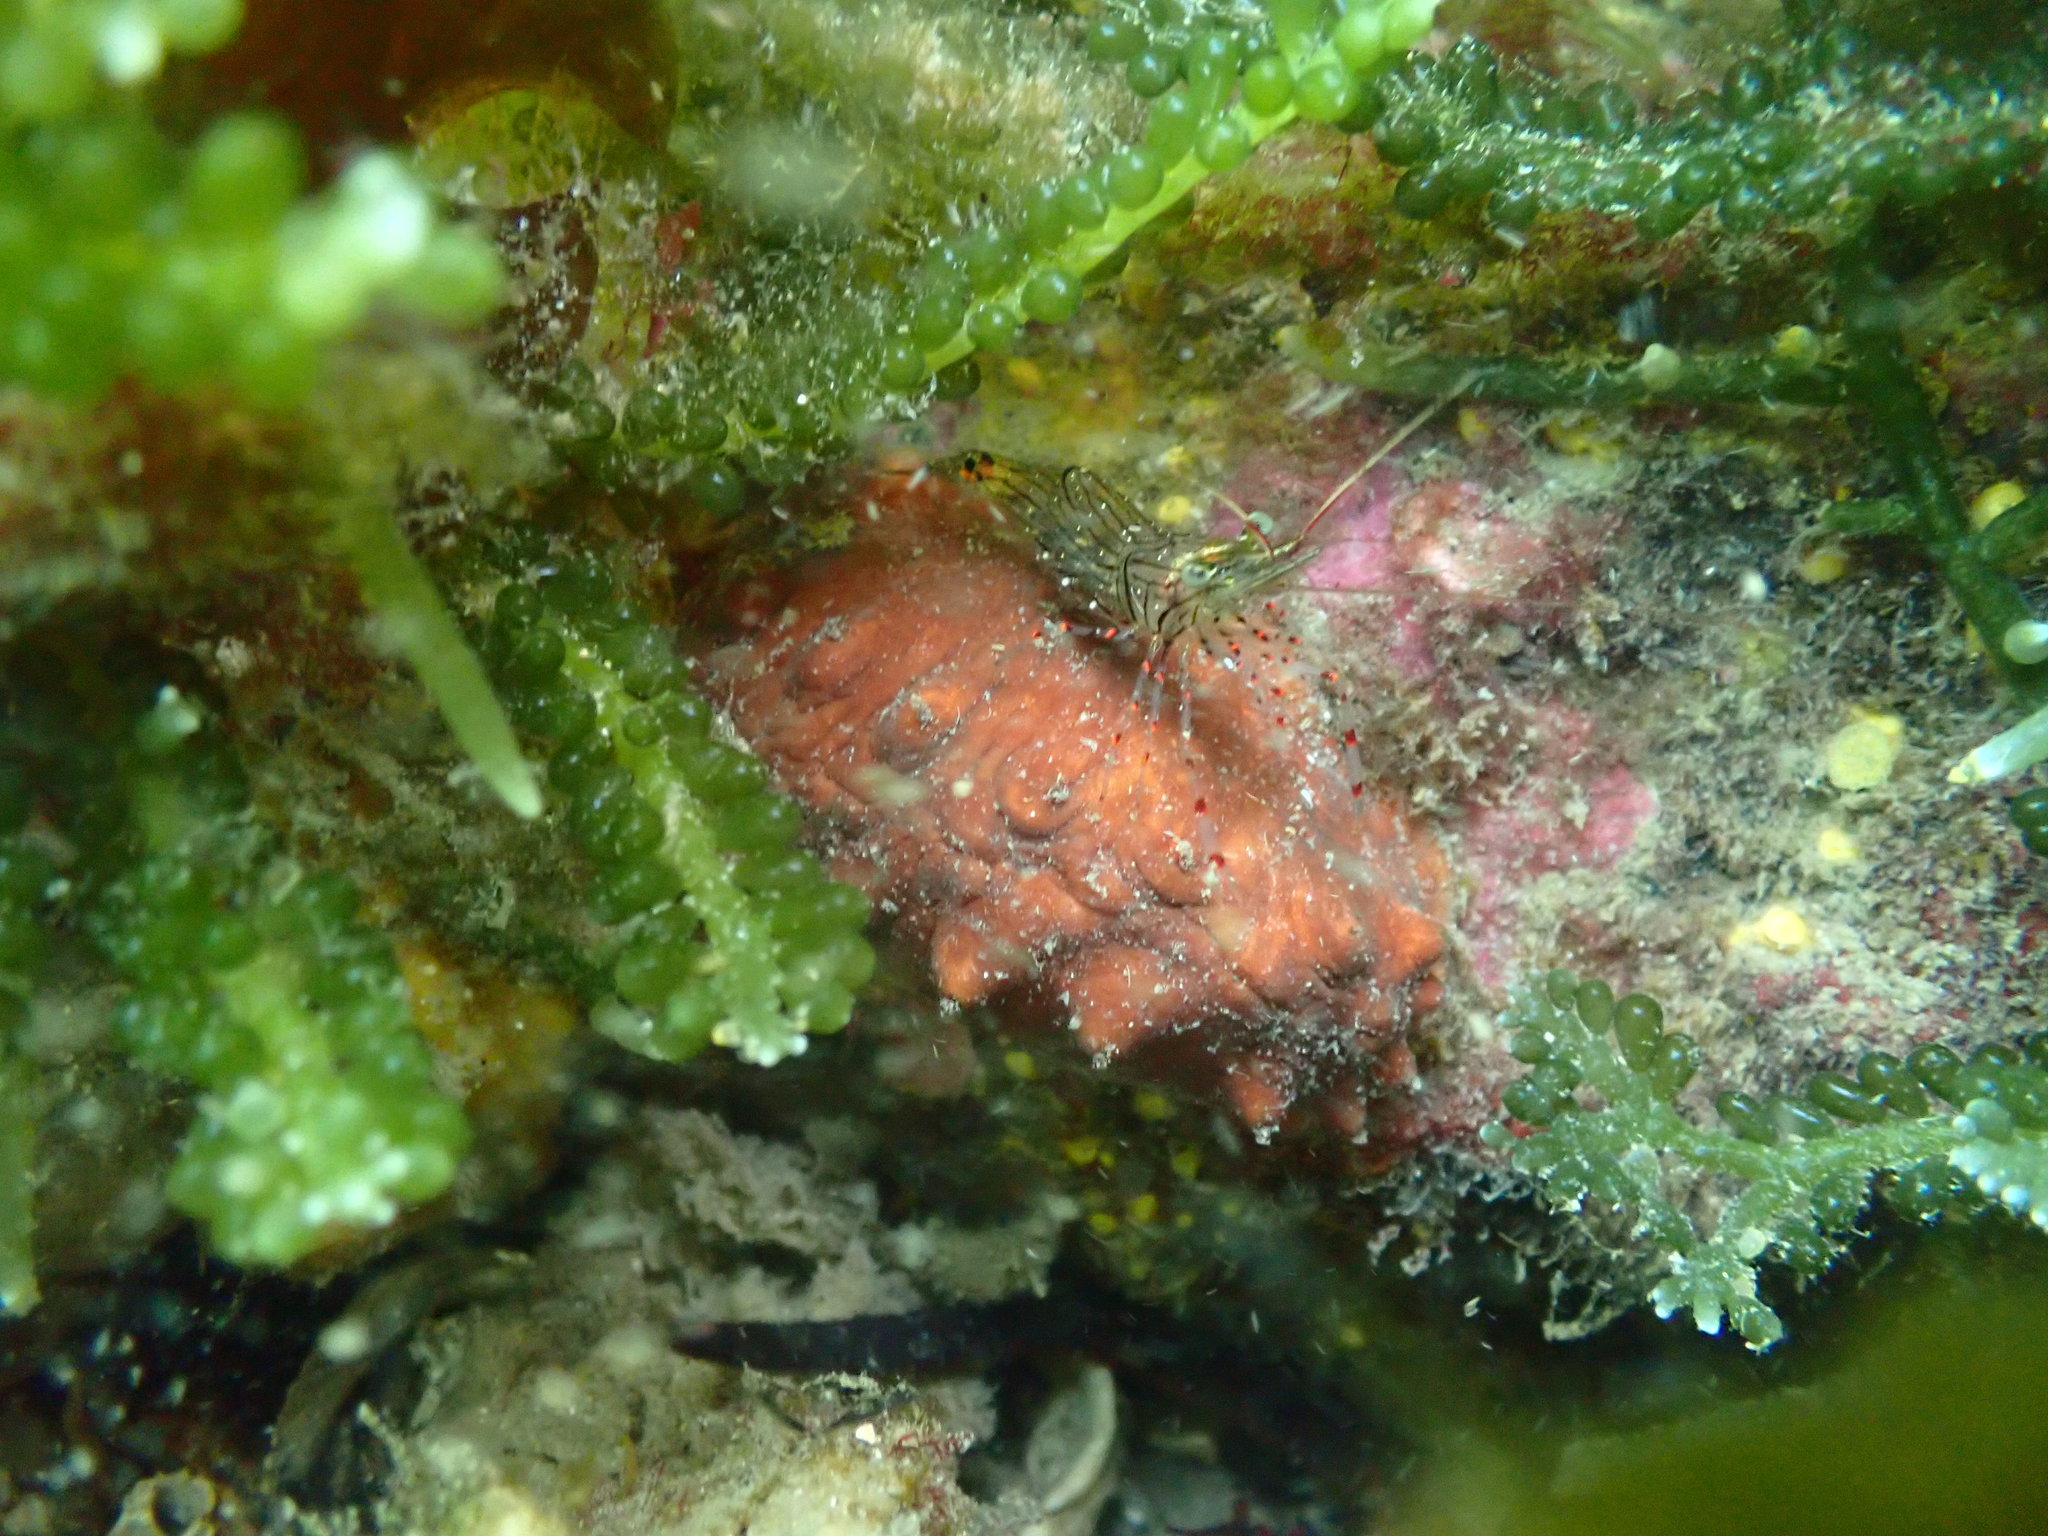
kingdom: Animalia
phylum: Arthropoda
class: Malacostraca
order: Decapoda
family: Palaemonidae
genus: Palaemon
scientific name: Palaemon affinis
